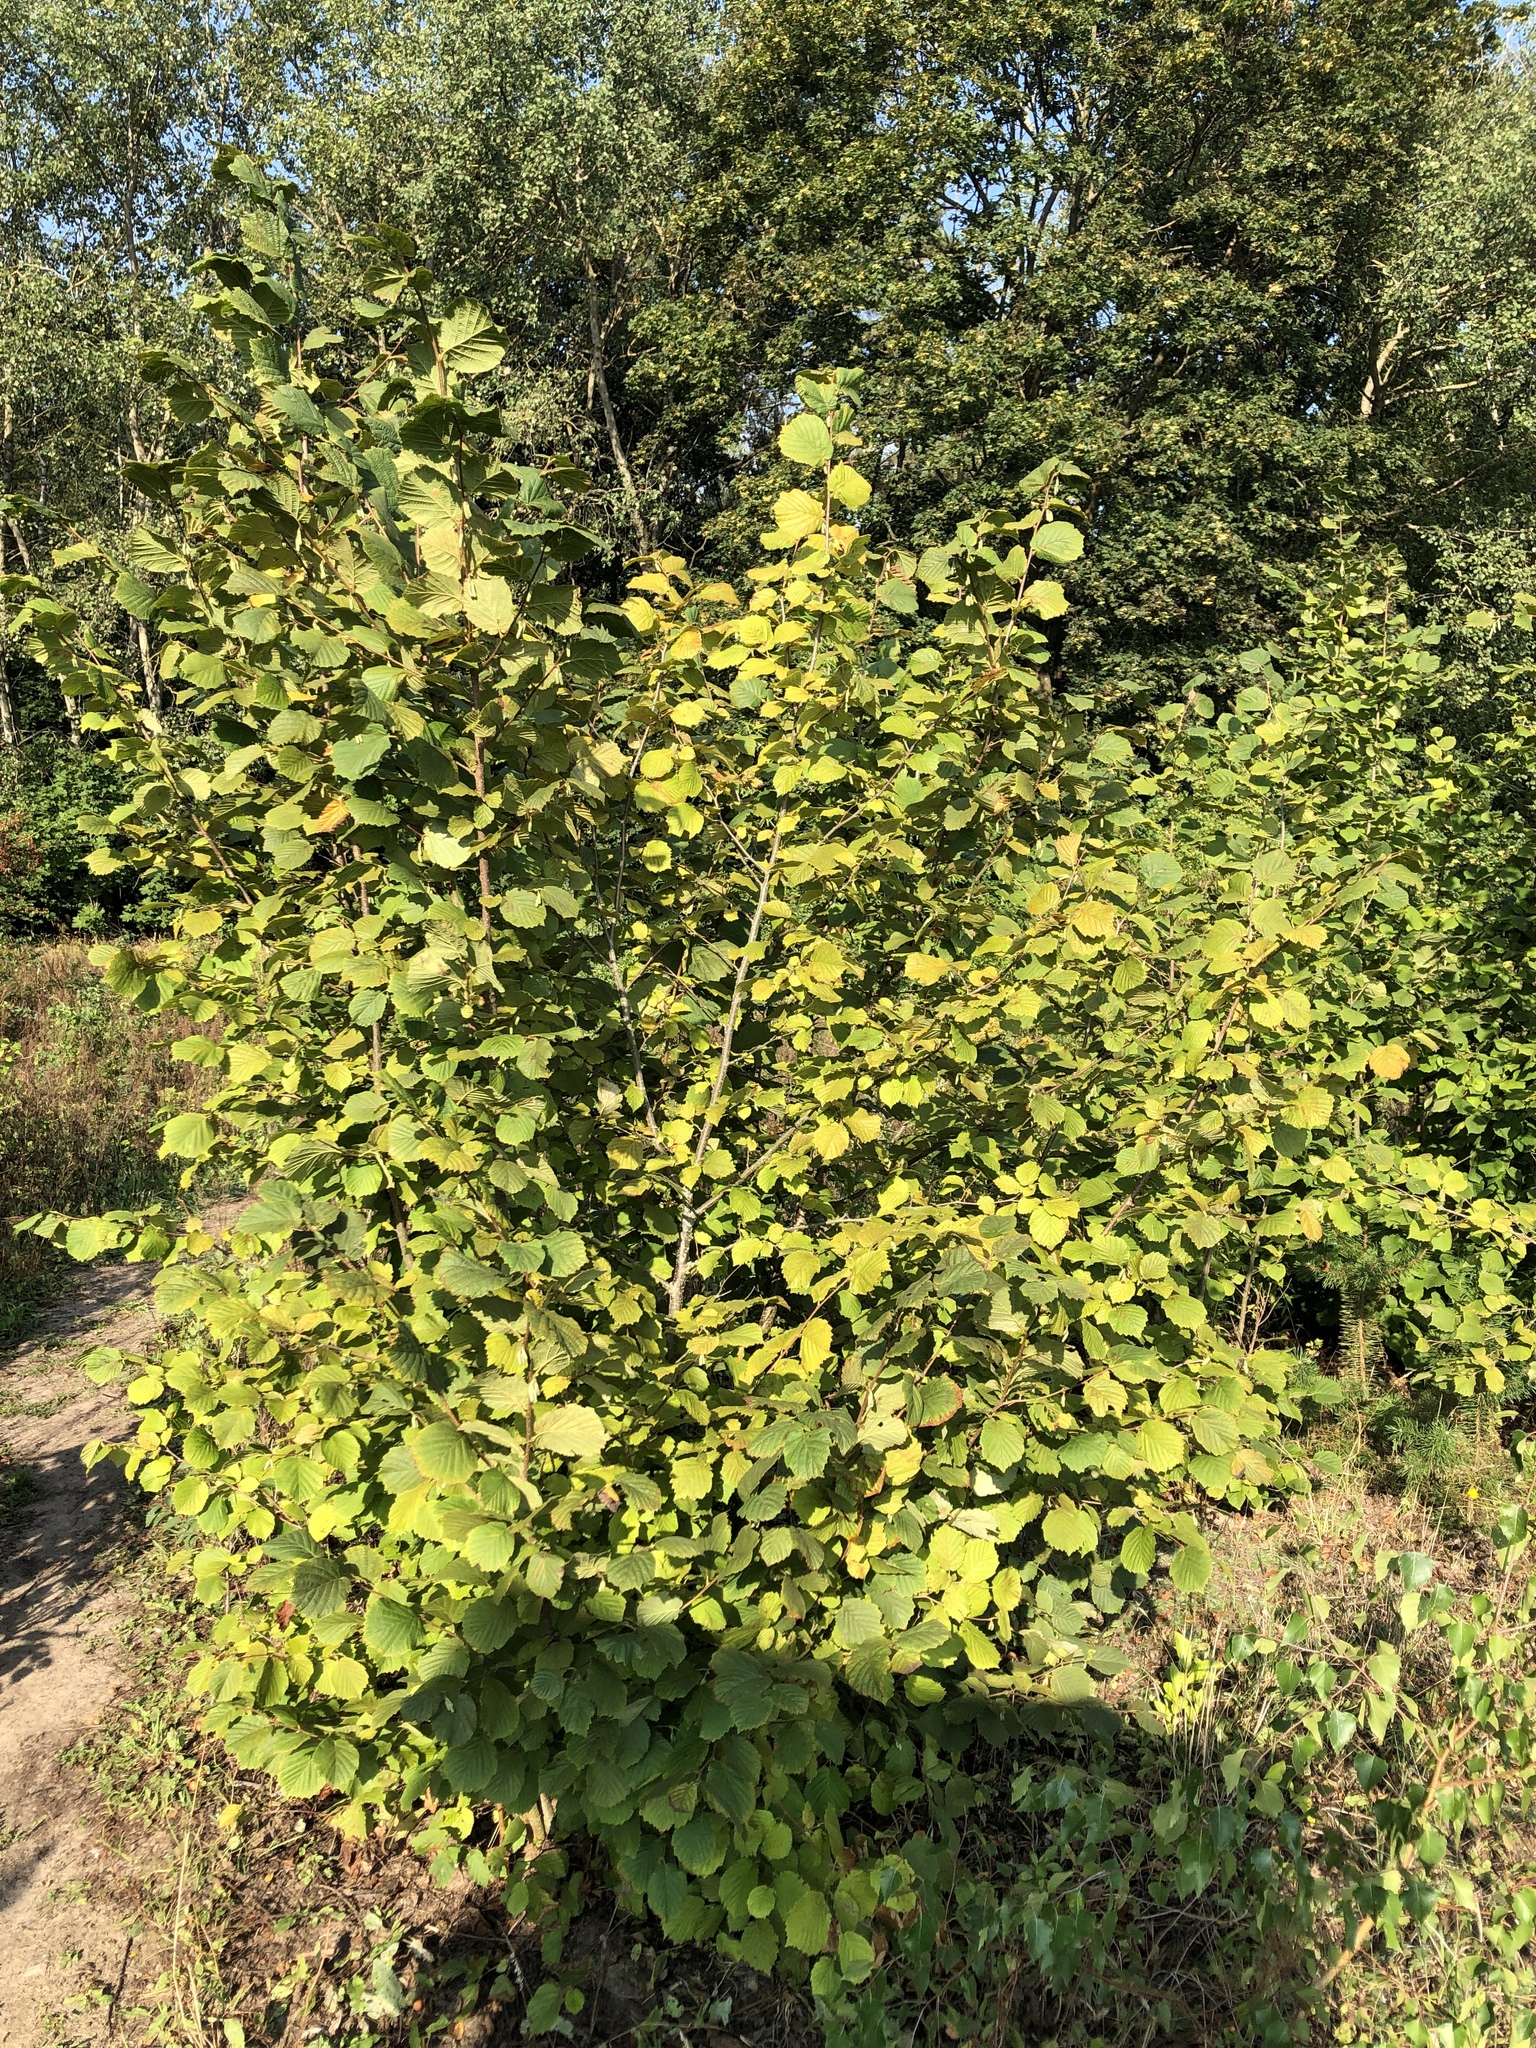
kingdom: Plantae
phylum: Tracheophyta
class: Magnoliopsida
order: Fagales
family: Betulaceae
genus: Corylus
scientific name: Corylus avellana
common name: European hazel
